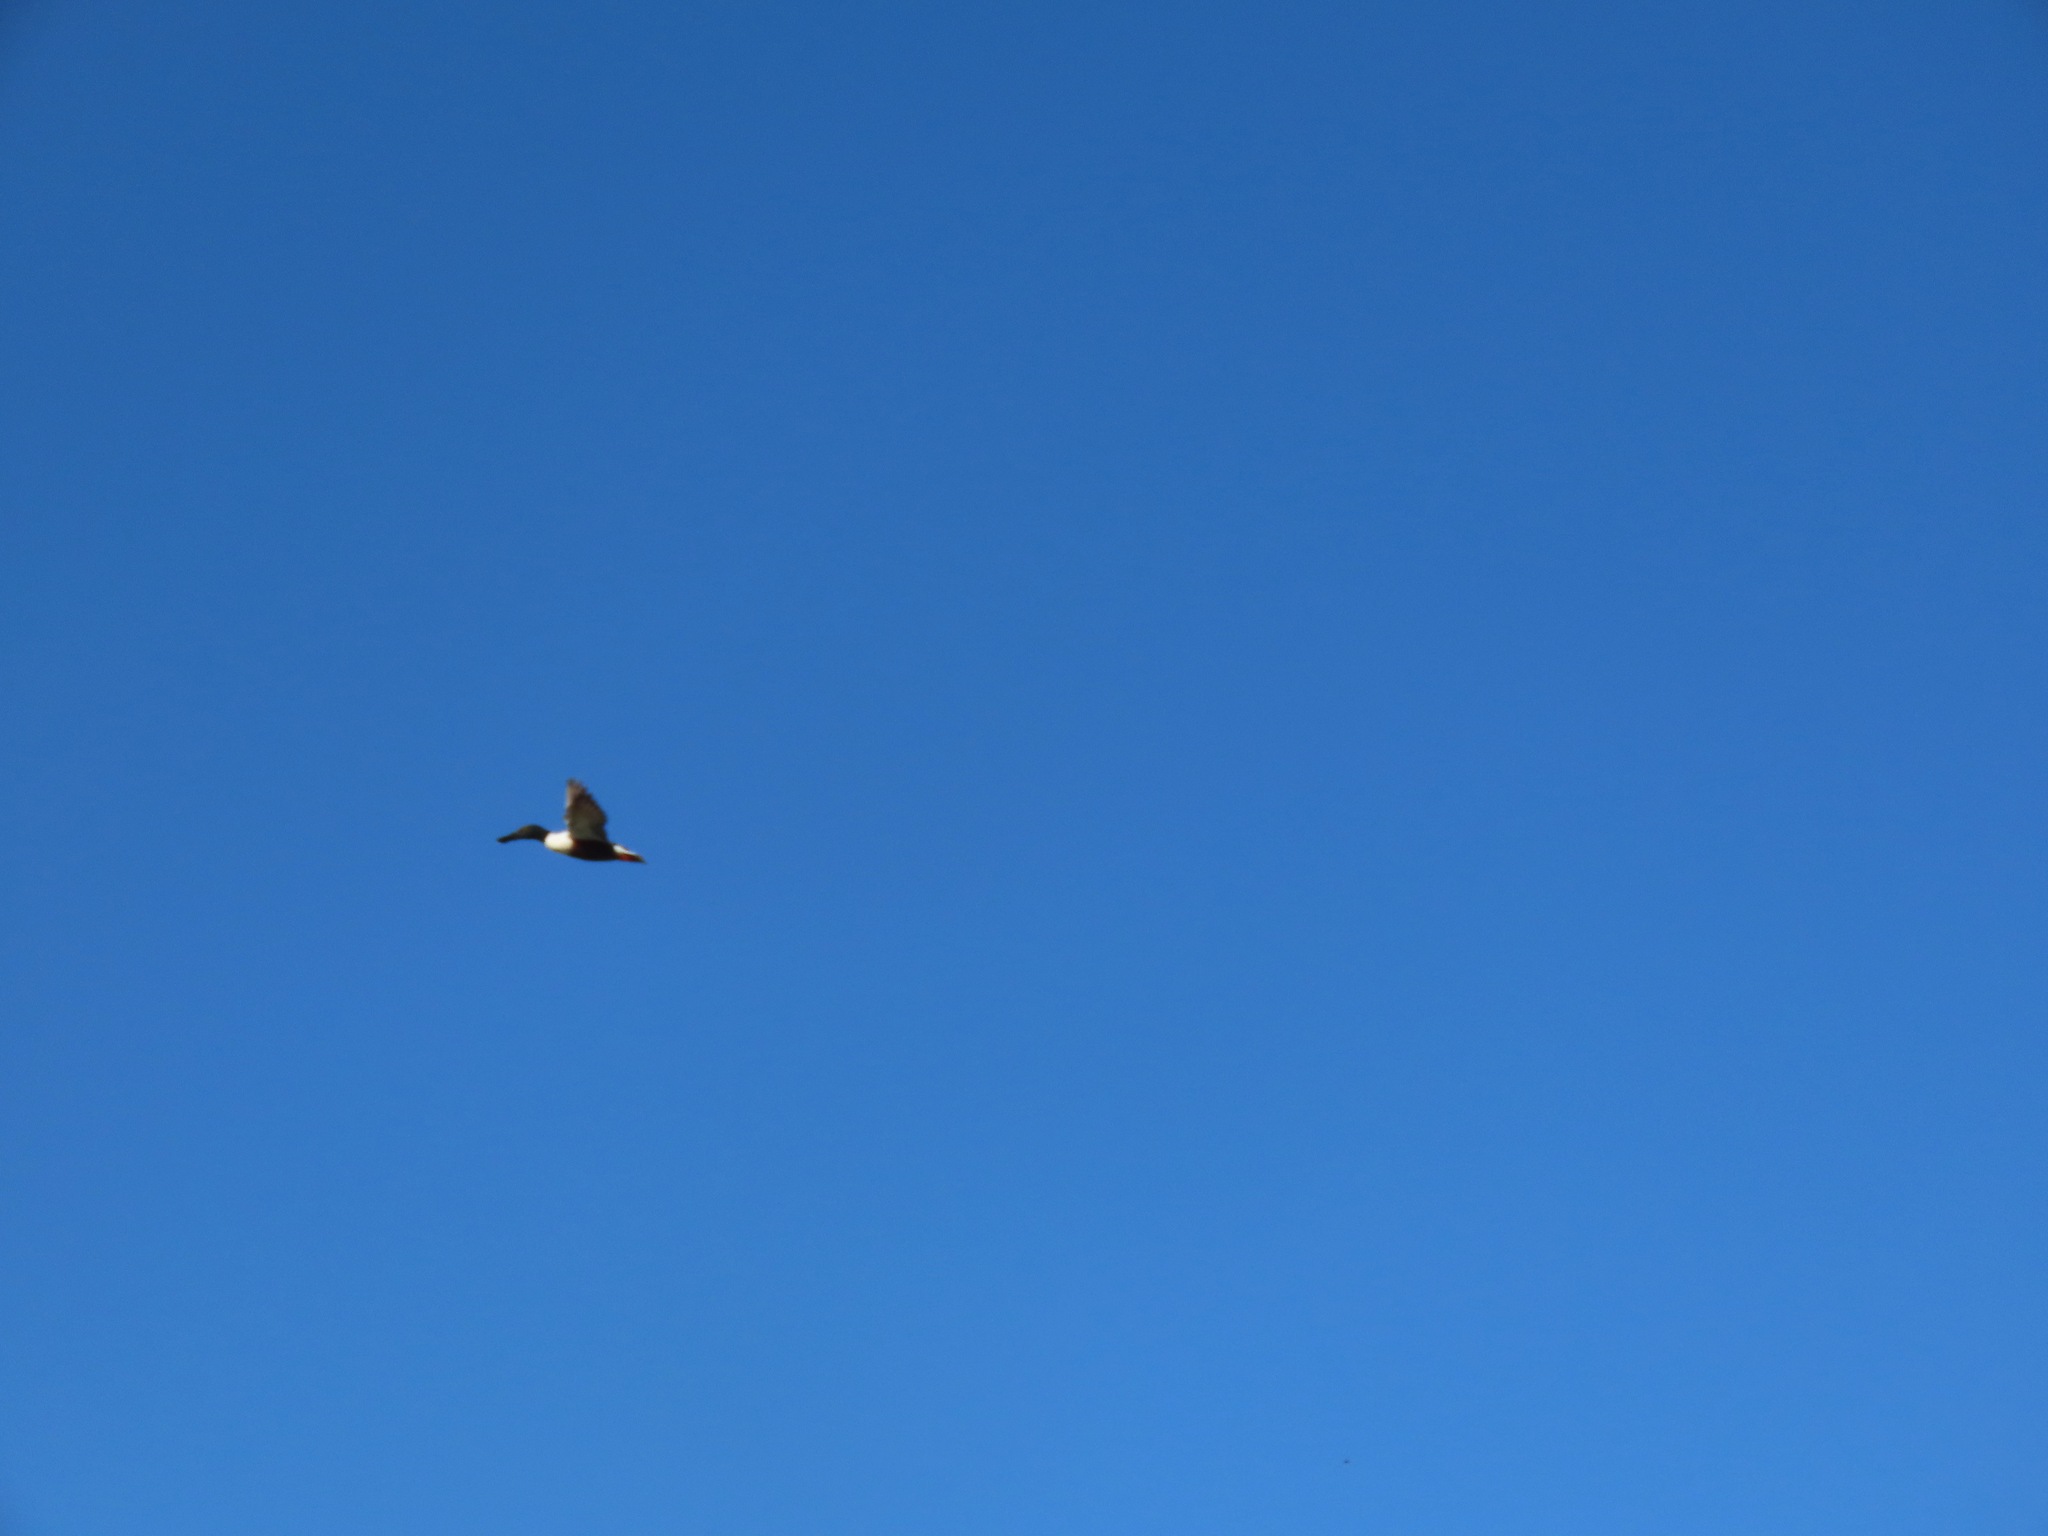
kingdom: Animalia
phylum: Chordata
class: Aves
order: Anseriformes
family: Anatidae
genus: Spatula
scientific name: Spatula clypeata
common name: Northern shoveler
